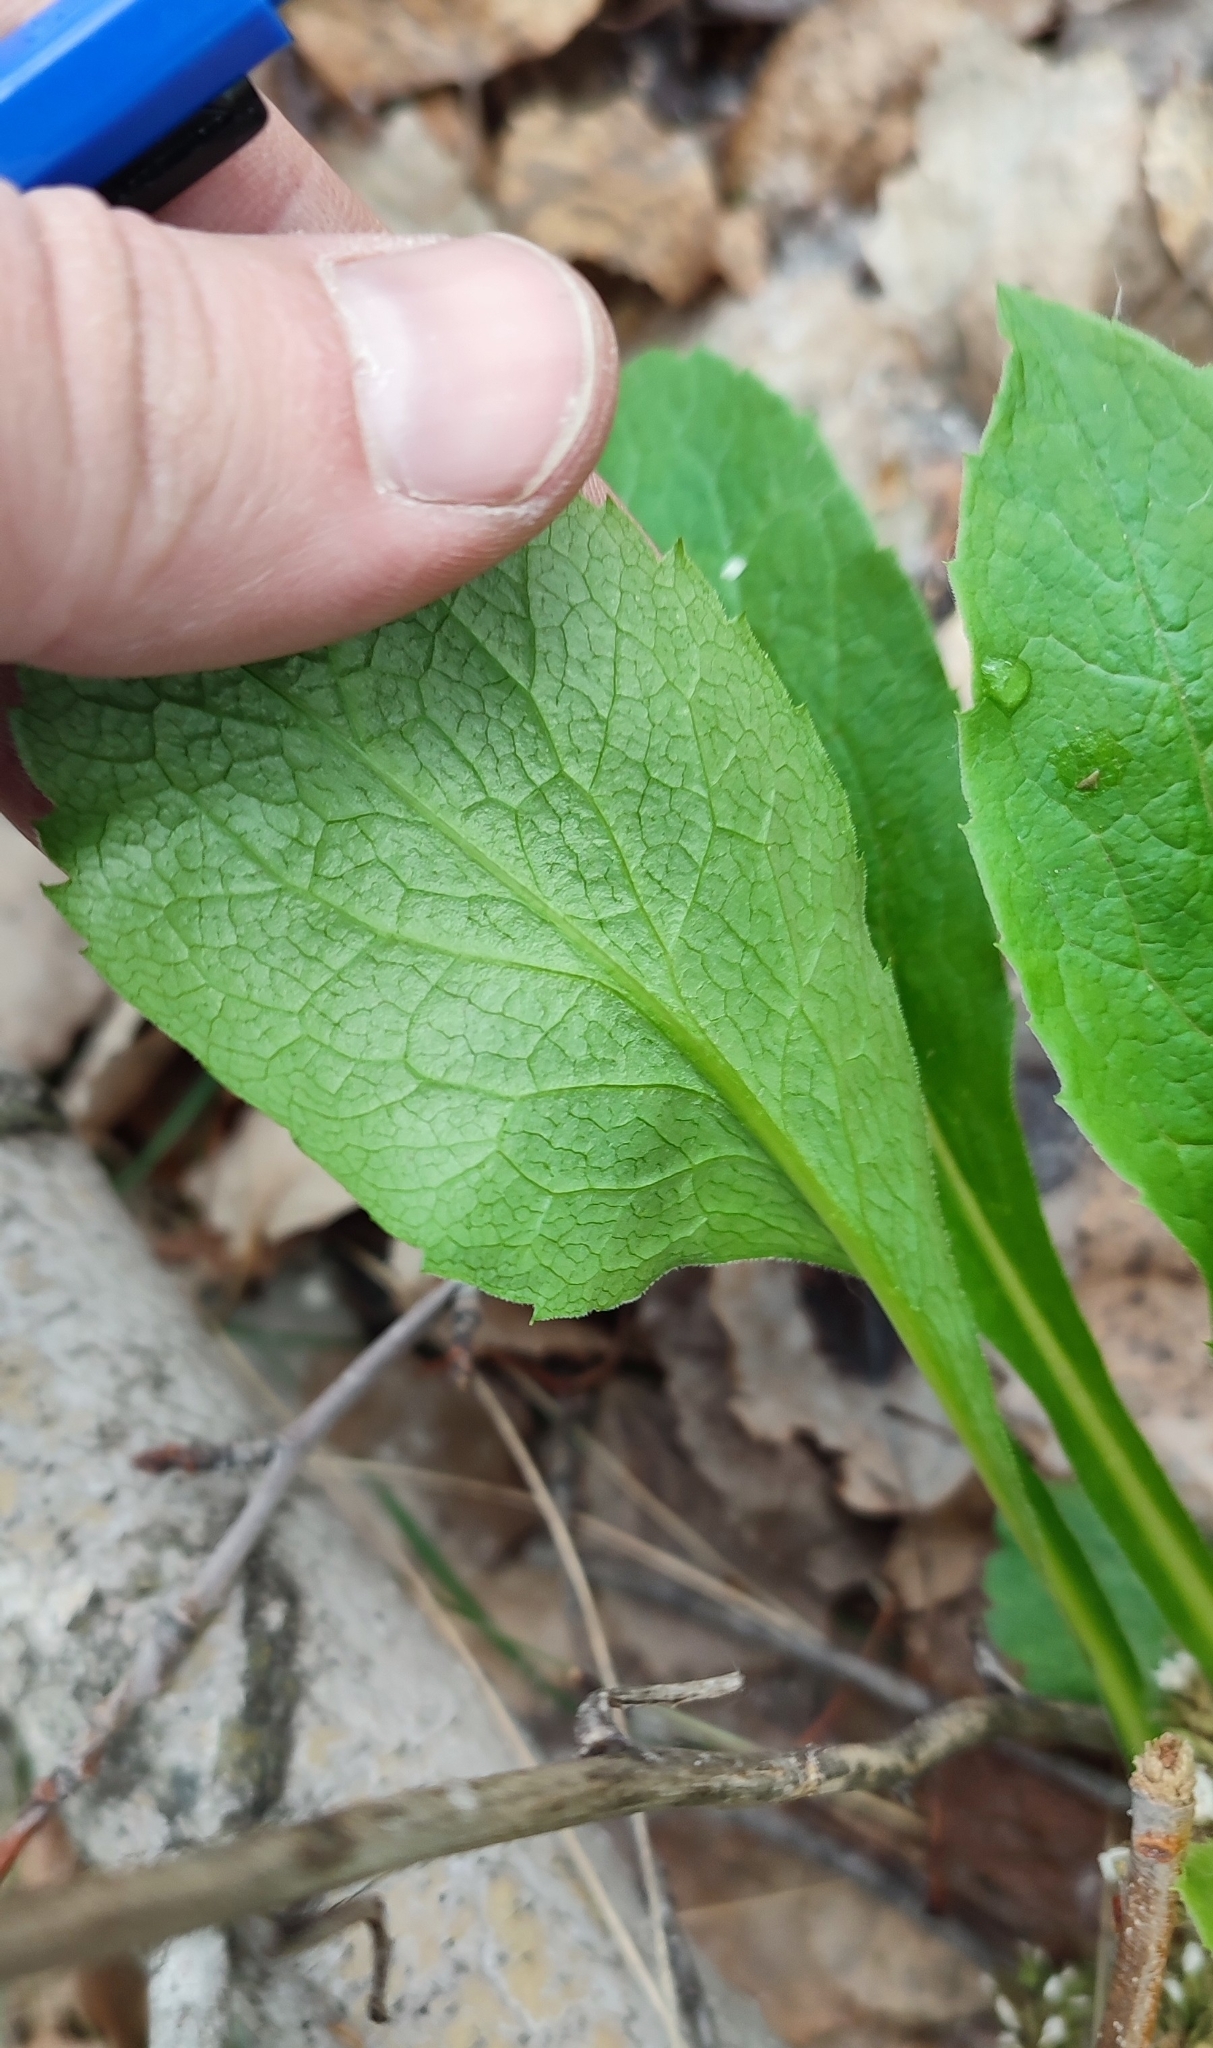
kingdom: Plantae
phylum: Tracheophyta
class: Magnoliopsida
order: Asterales
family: Asteraceae
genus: Solidago
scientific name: Solidago virgaurea
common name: Goldenrod
